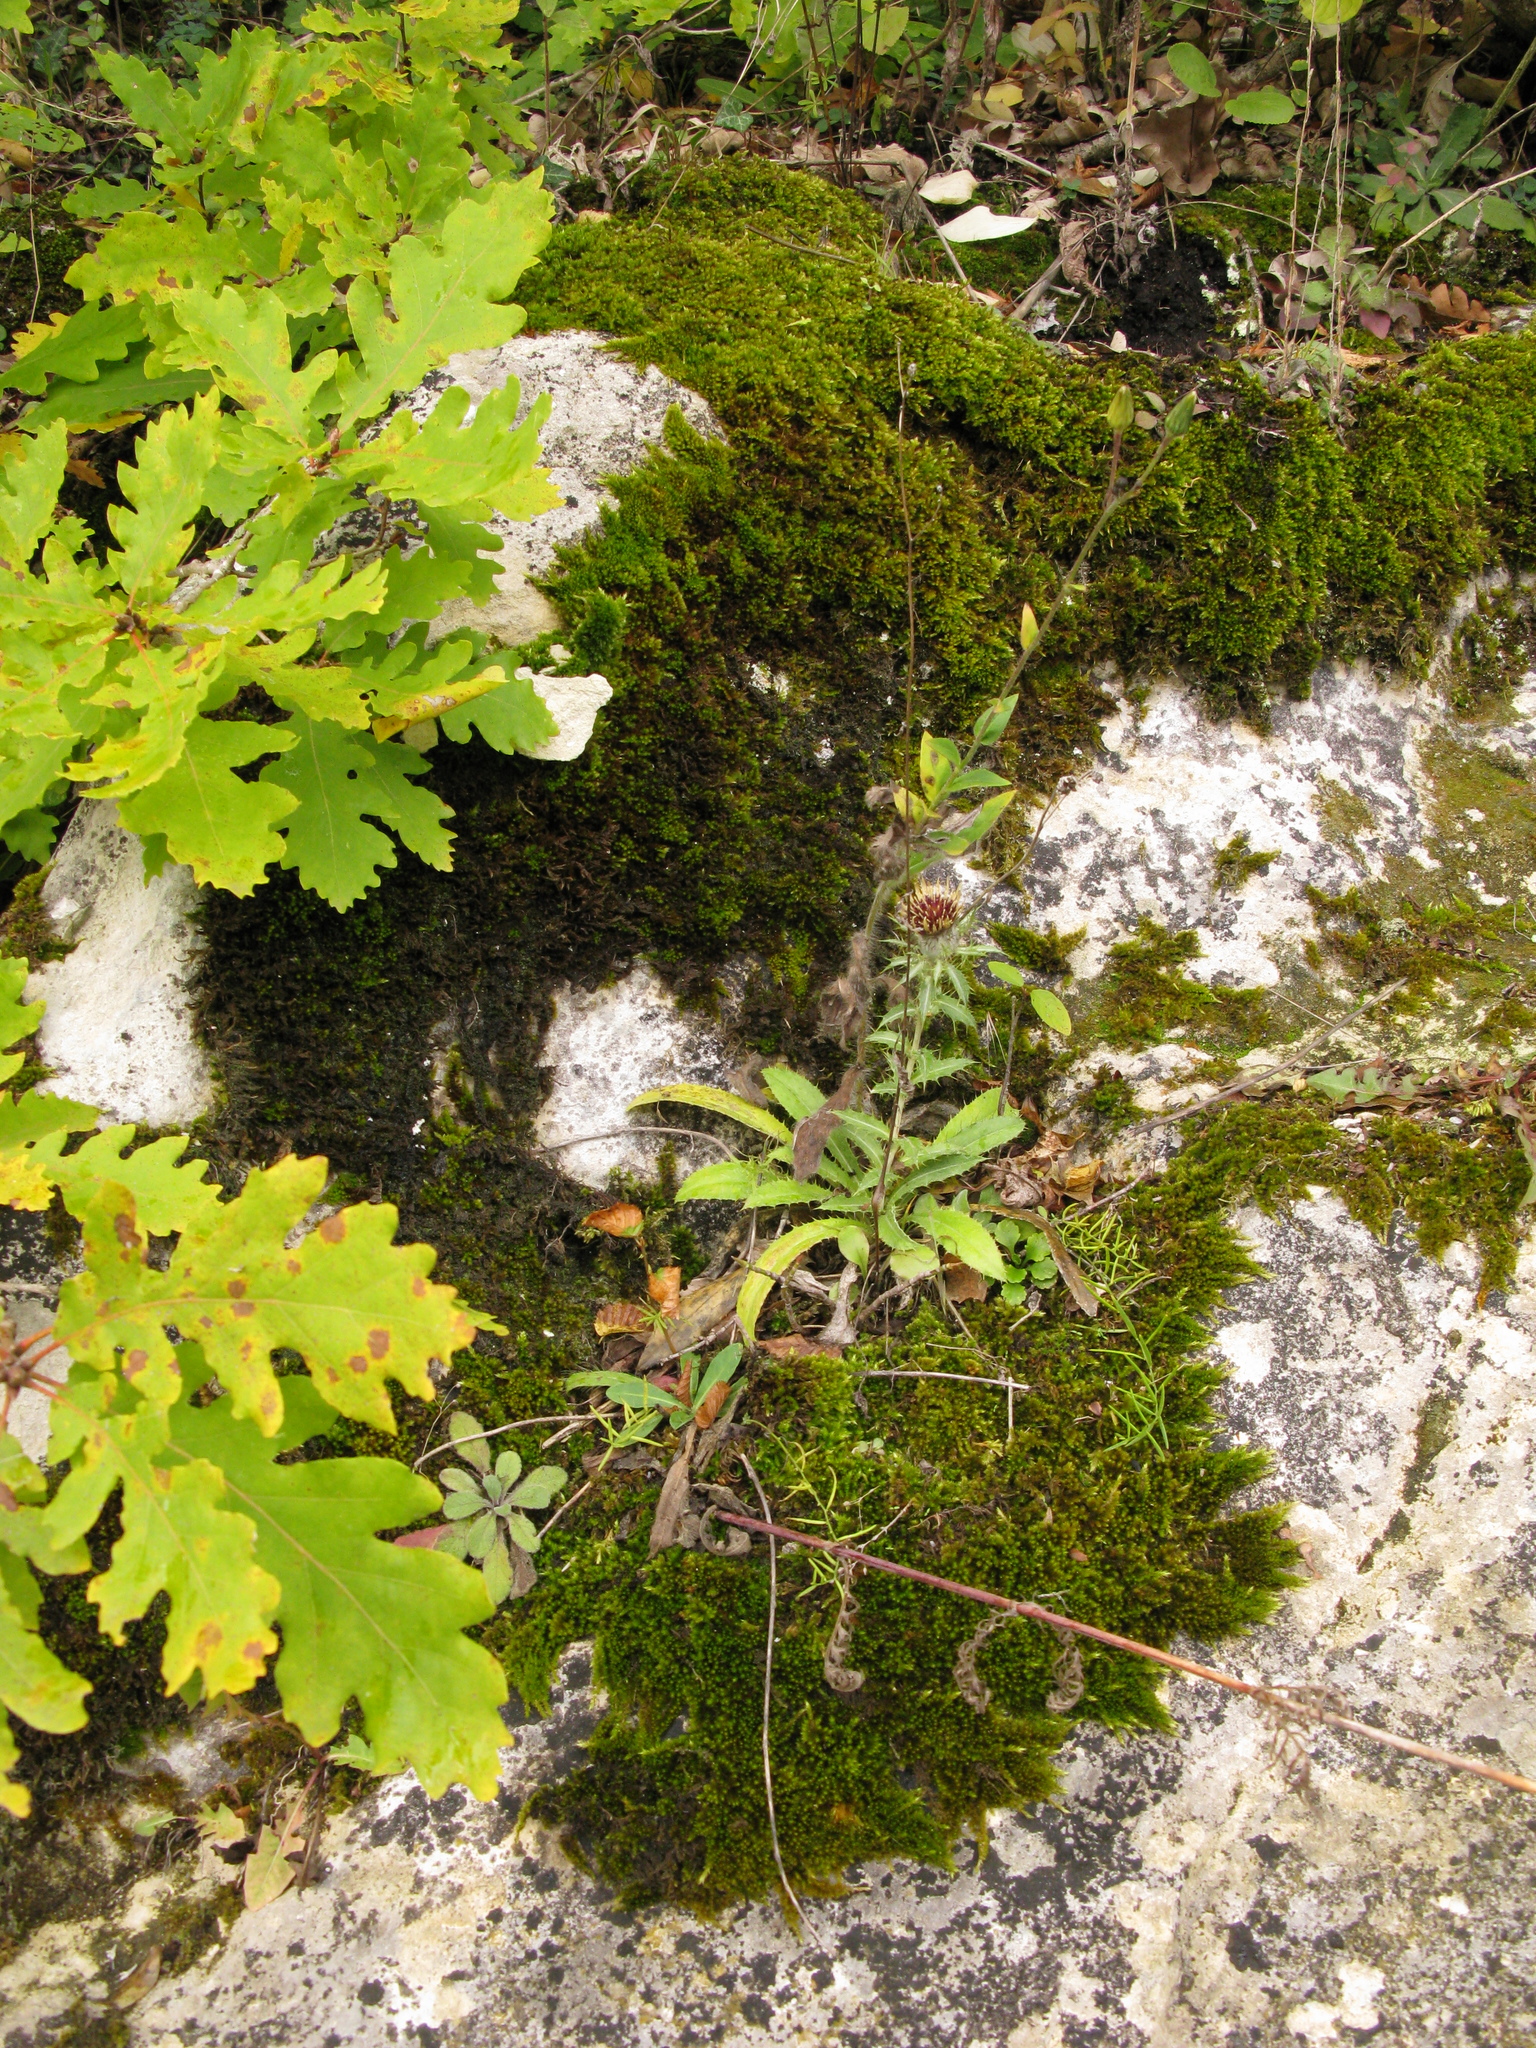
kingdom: Plantae
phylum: Tracheophyta
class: Magnoliopsida
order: Asterales
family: Asteraceae
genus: Carlina
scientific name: Carlina vulgaris
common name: Carline thistle
